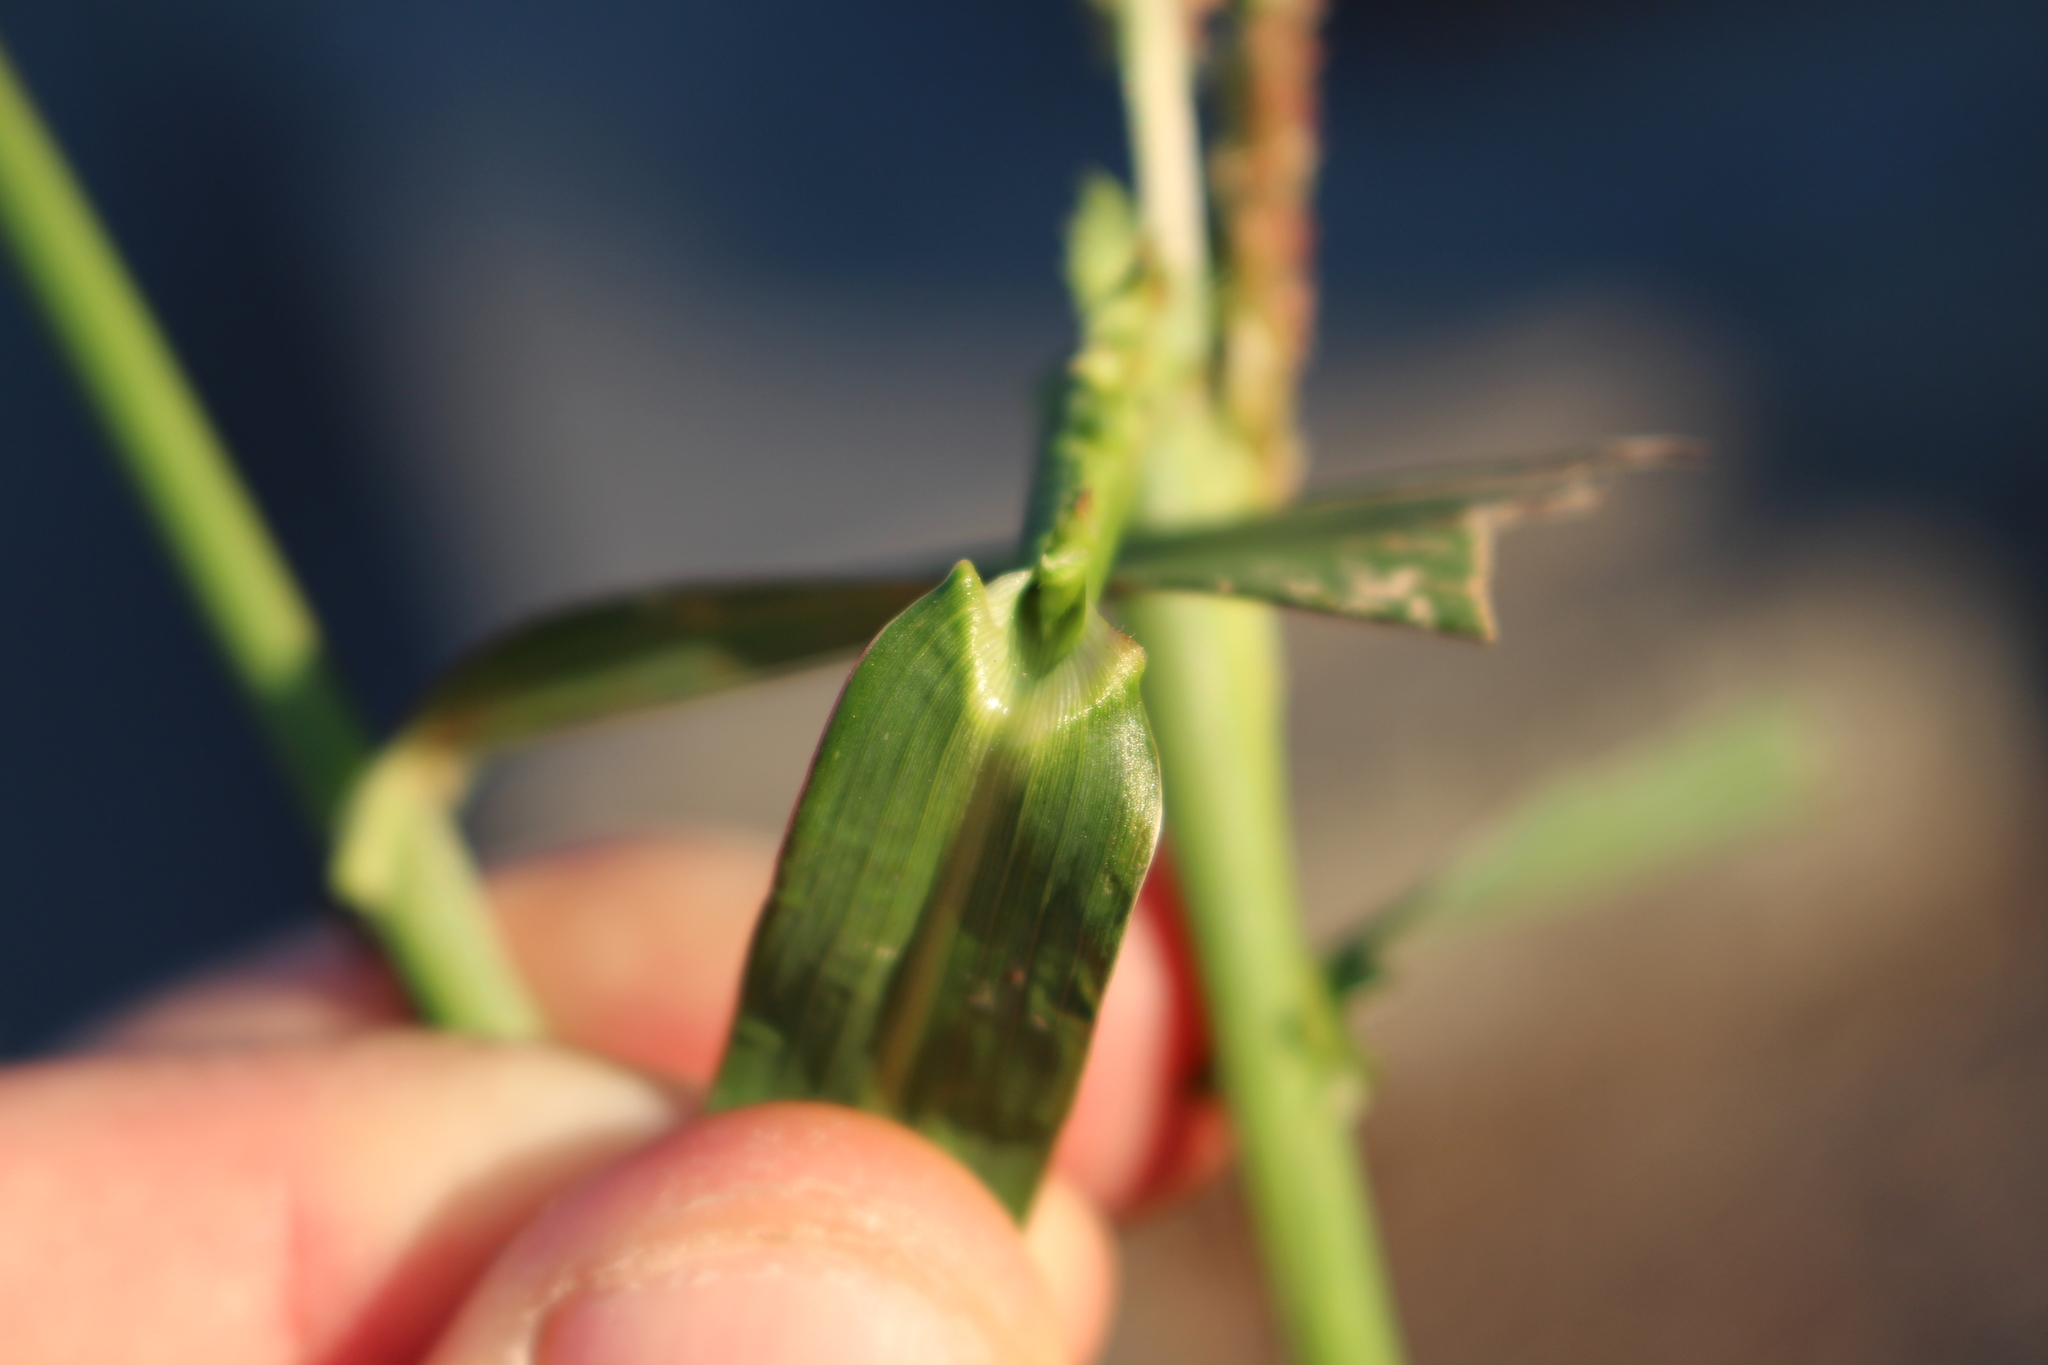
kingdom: Plantae
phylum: Tracheophyta
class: Liliopsida
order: Poales
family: Poaceae
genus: Echinochloa
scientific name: Echinochloa crus-galli
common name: Cockspur
